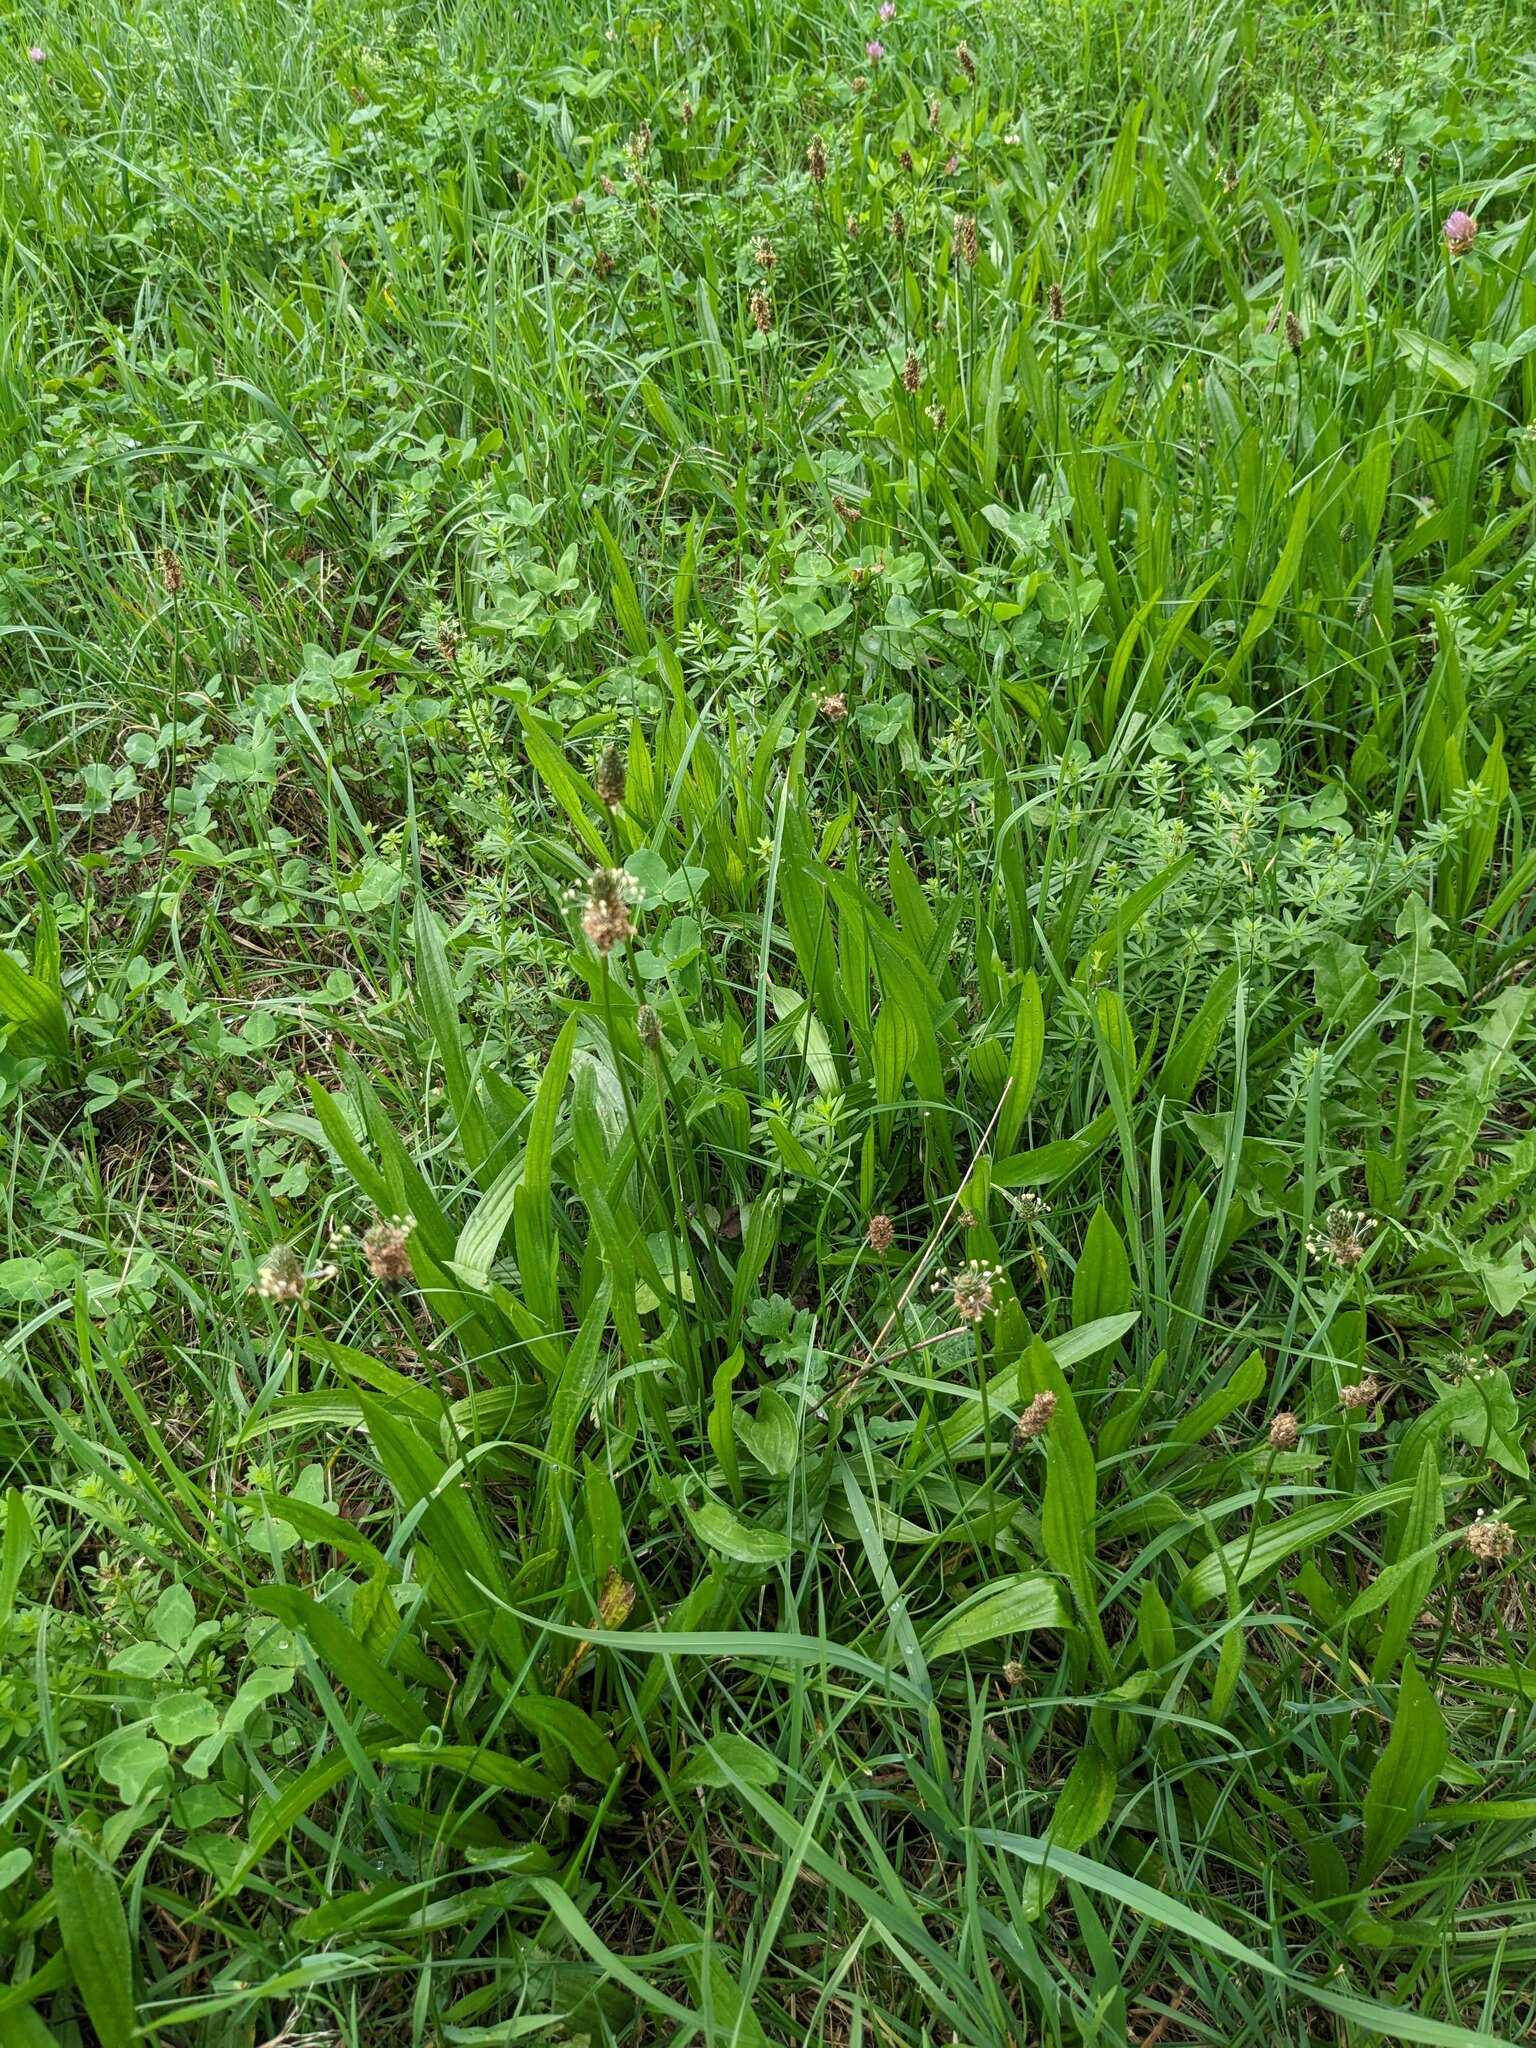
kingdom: Plantae
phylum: Tracheophyta
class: Magnoliopsida
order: Lamiales
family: Plantaginaceae
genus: Plantago
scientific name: Plantago lanceolata
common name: Ribwort plantain
